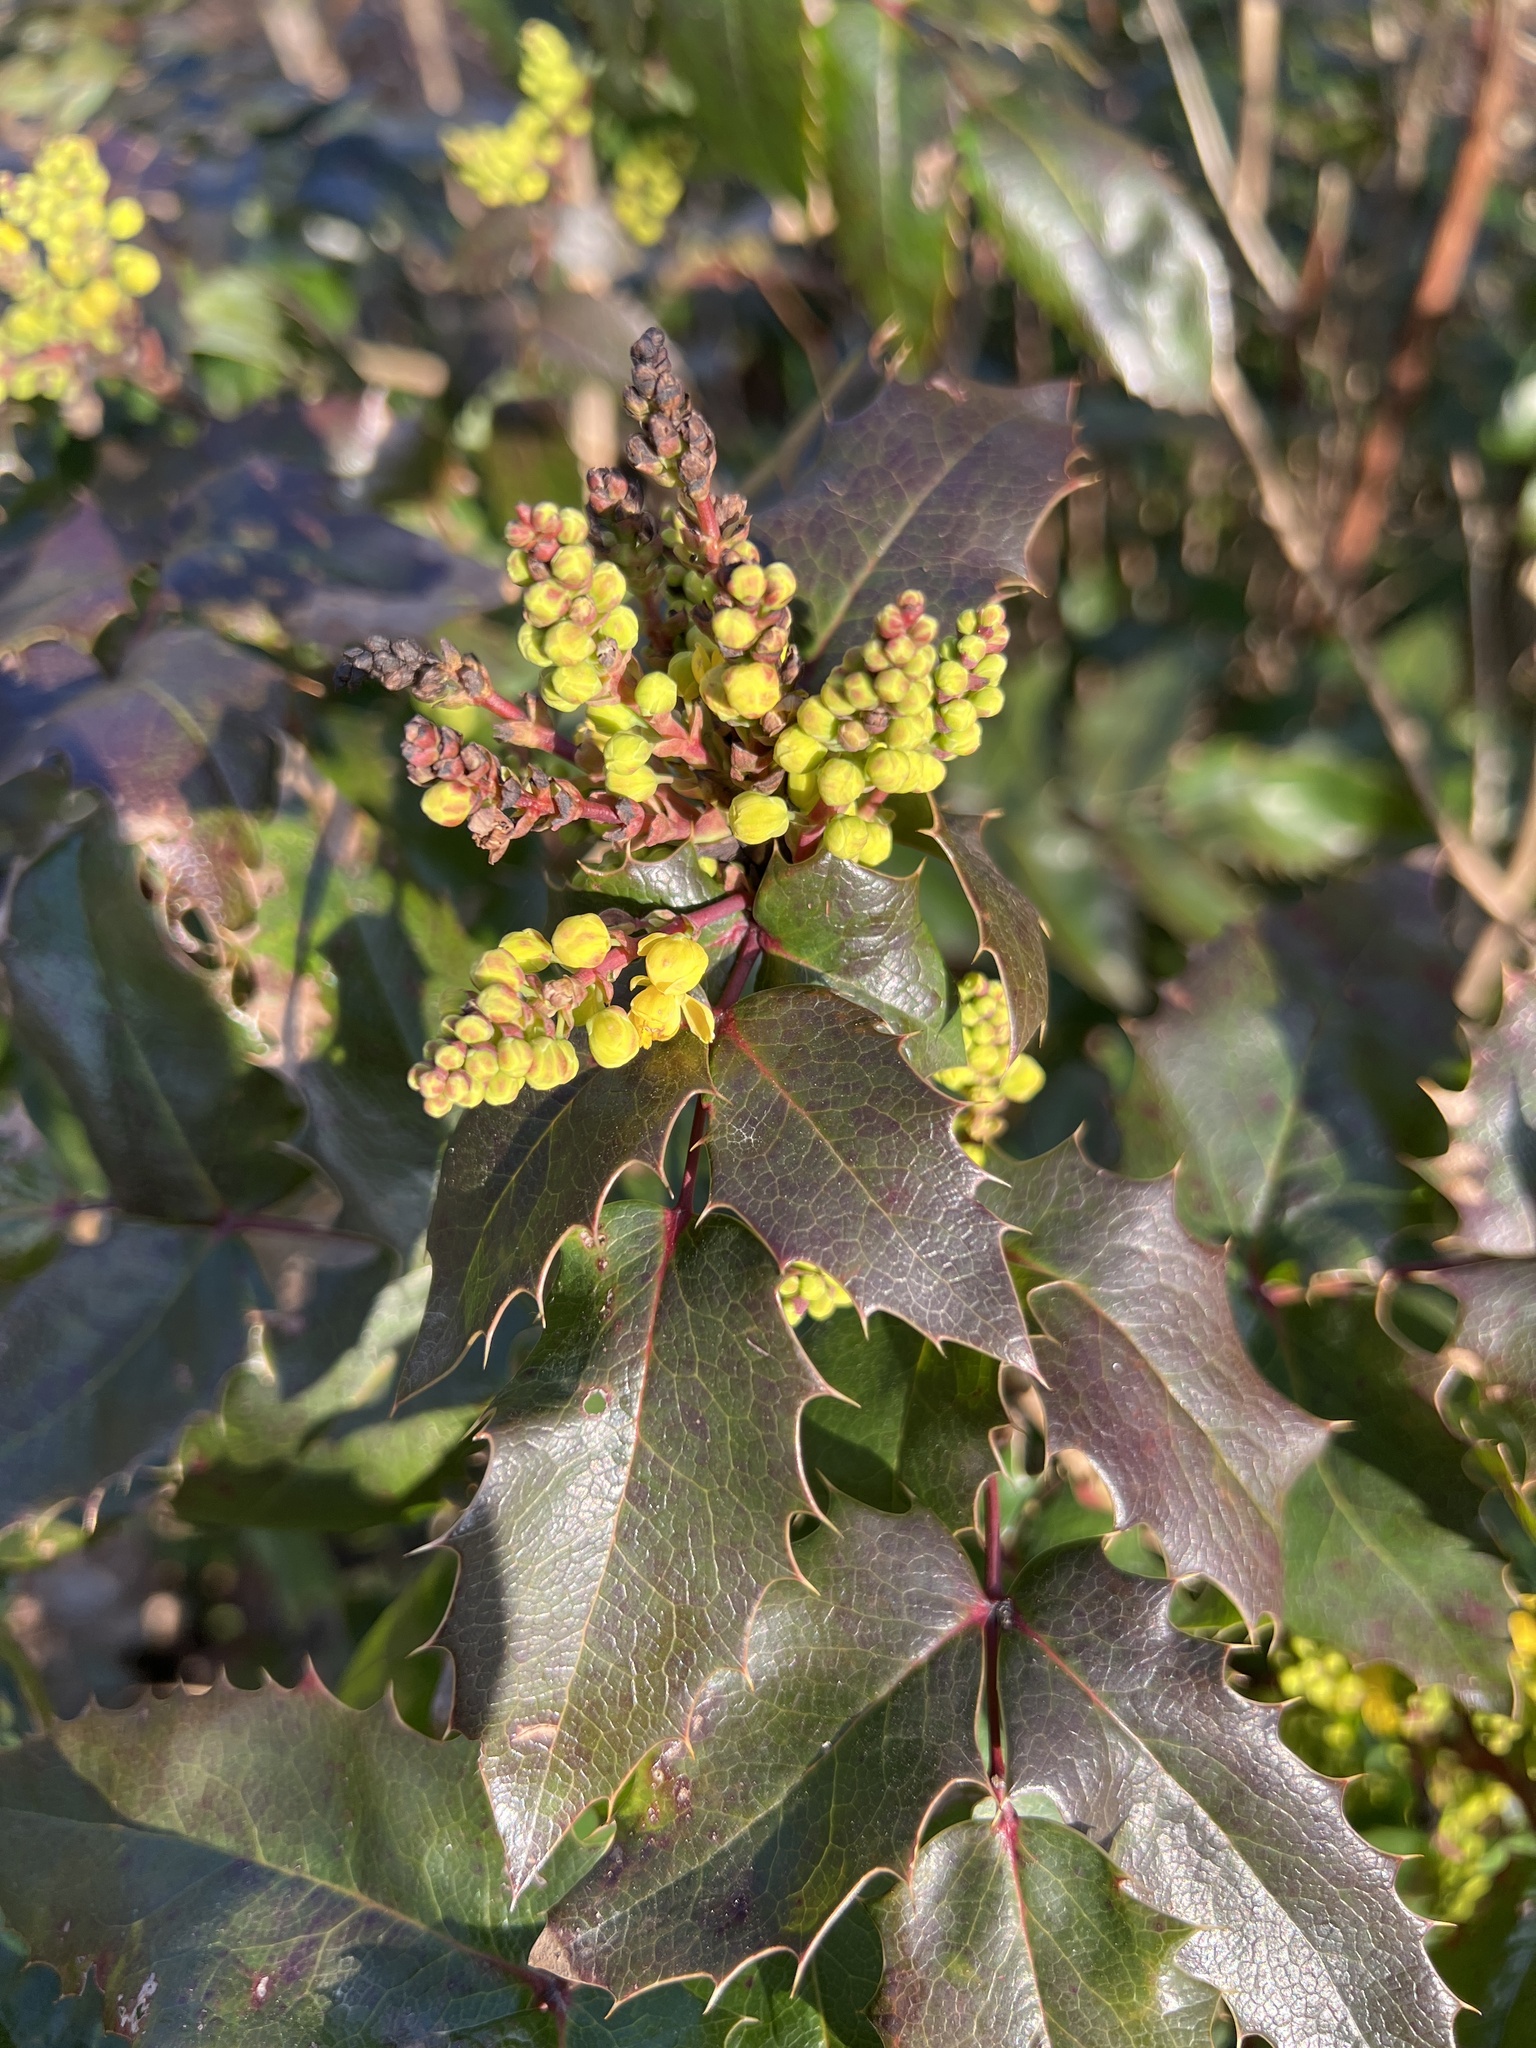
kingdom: Plantae
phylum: Tracheophyta
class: Magnoliopsida
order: Ranunculales
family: Berberidaceae
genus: Mahonia
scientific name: Mahonia aquifolium
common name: Oregon-grape
